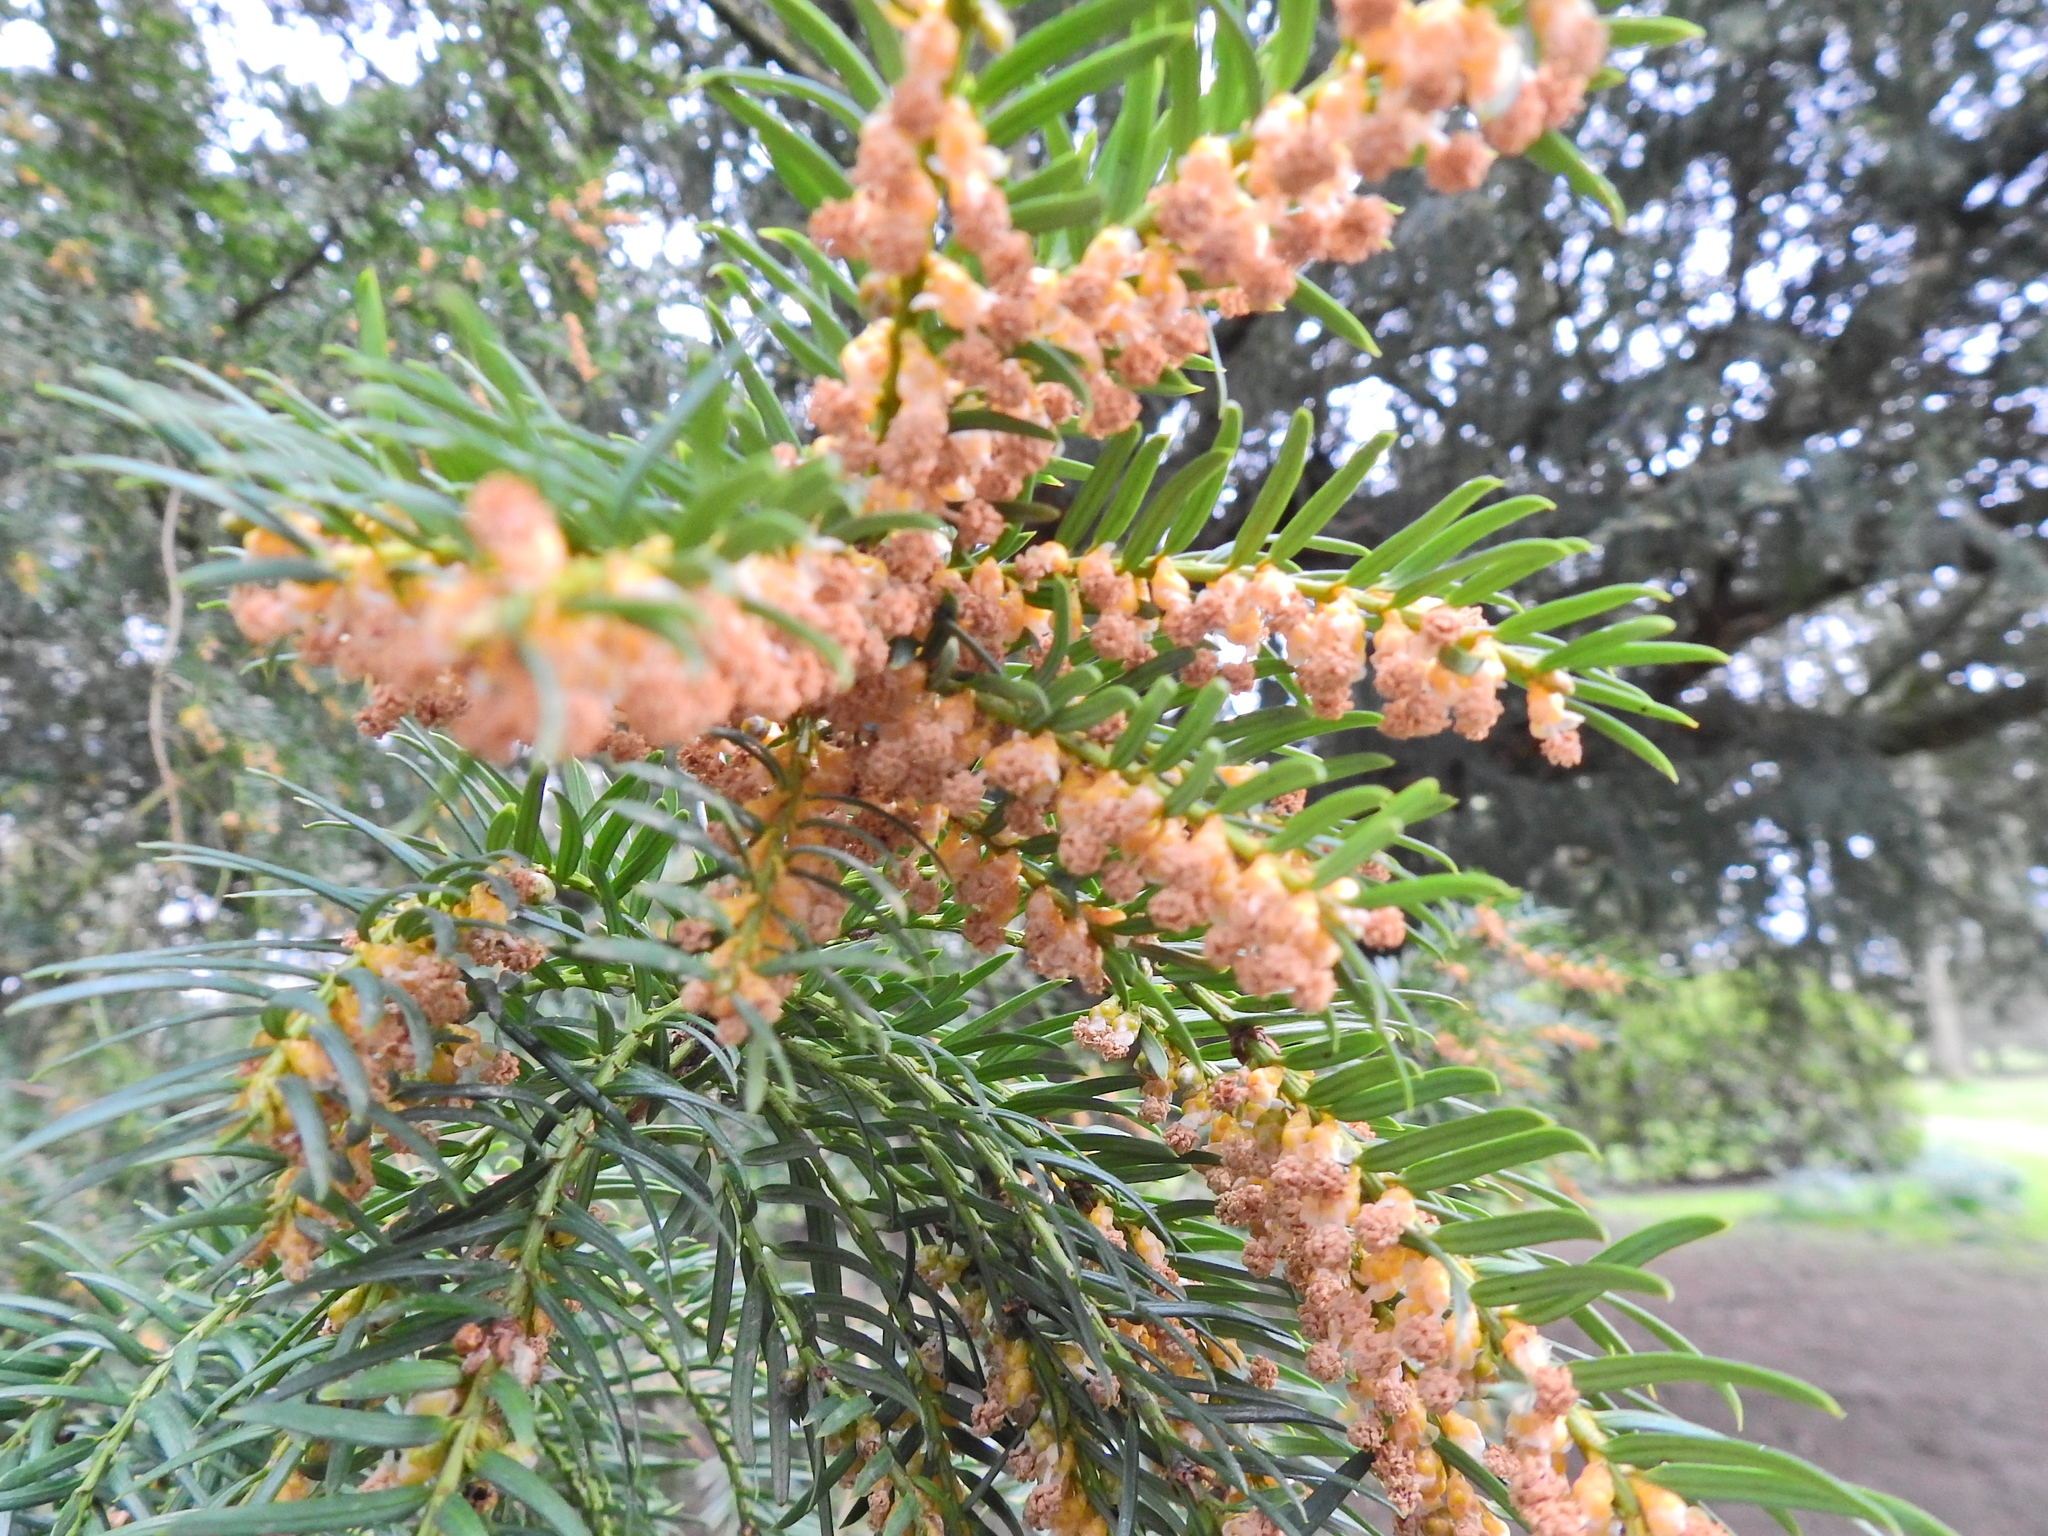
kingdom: Plantae
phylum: Tracheophyta
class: Pinopsida
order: Pinales
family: Taxaceae
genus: Taxus
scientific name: Taxus baccata
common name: Yew
